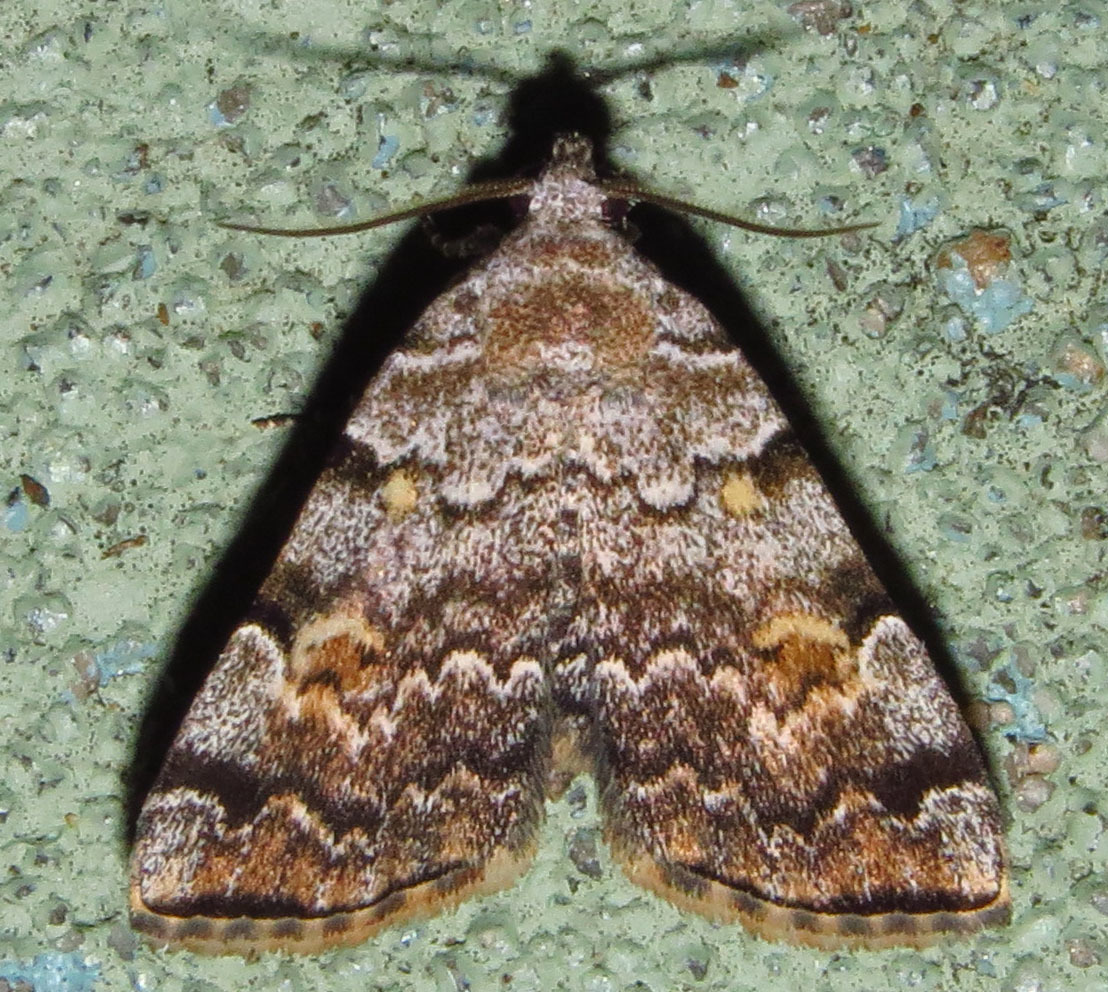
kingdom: Animalia
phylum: Arthropoda
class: Insecta
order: Lepidoptera
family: Erebidae
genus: Idia
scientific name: Idia americalis
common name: American idia moth
